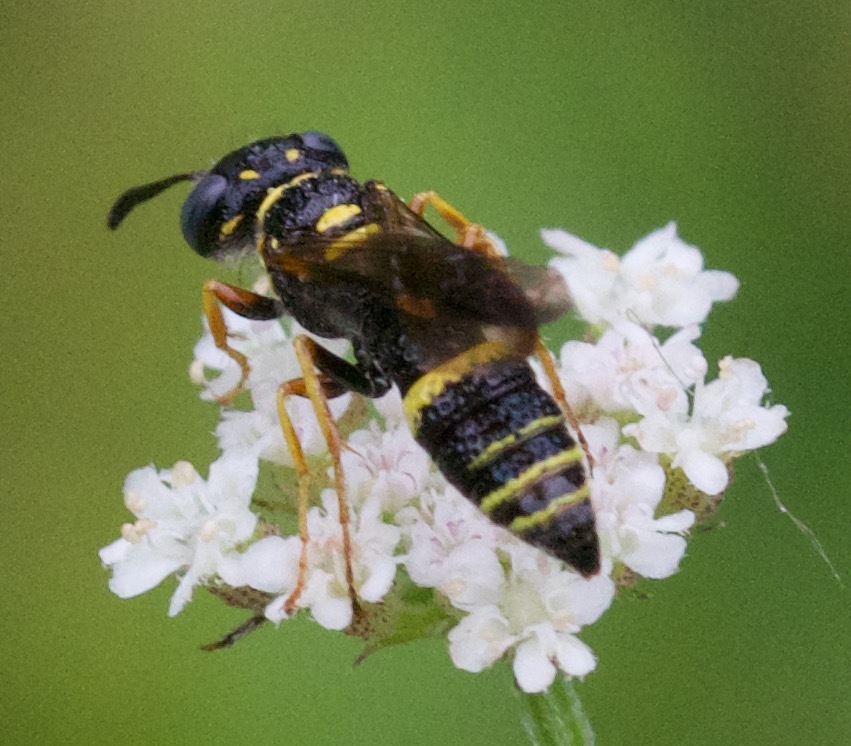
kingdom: Animalia
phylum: Arthropoda
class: Insecta
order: Hymenoptera
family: Crabronidae
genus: Philanthus
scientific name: Philanthus gibbosus
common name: Humped beewolf
